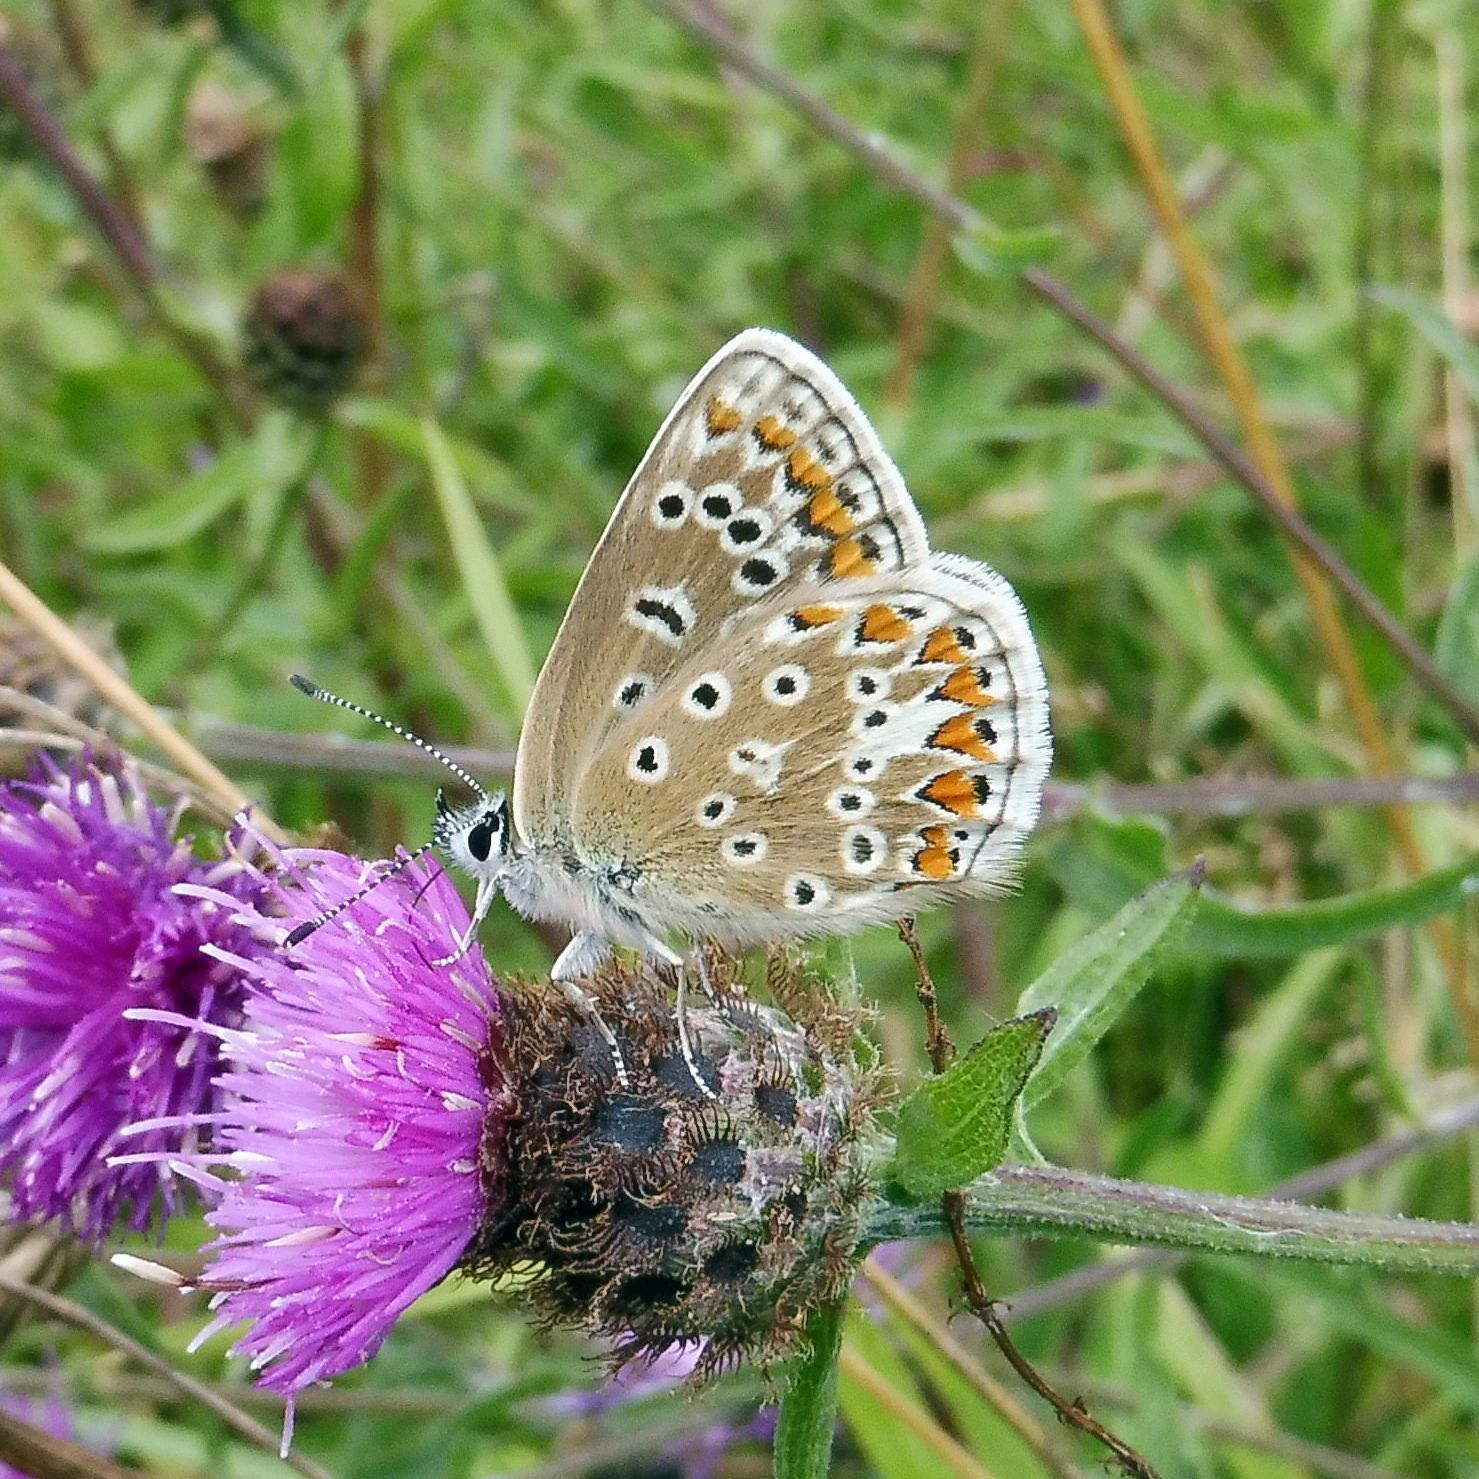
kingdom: Animalia
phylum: Arthropoda
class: Insecta
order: Lepidoptera
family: Lycaenidae
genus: Polyommatus
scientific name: Polyommatus icarus
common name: Common blue
